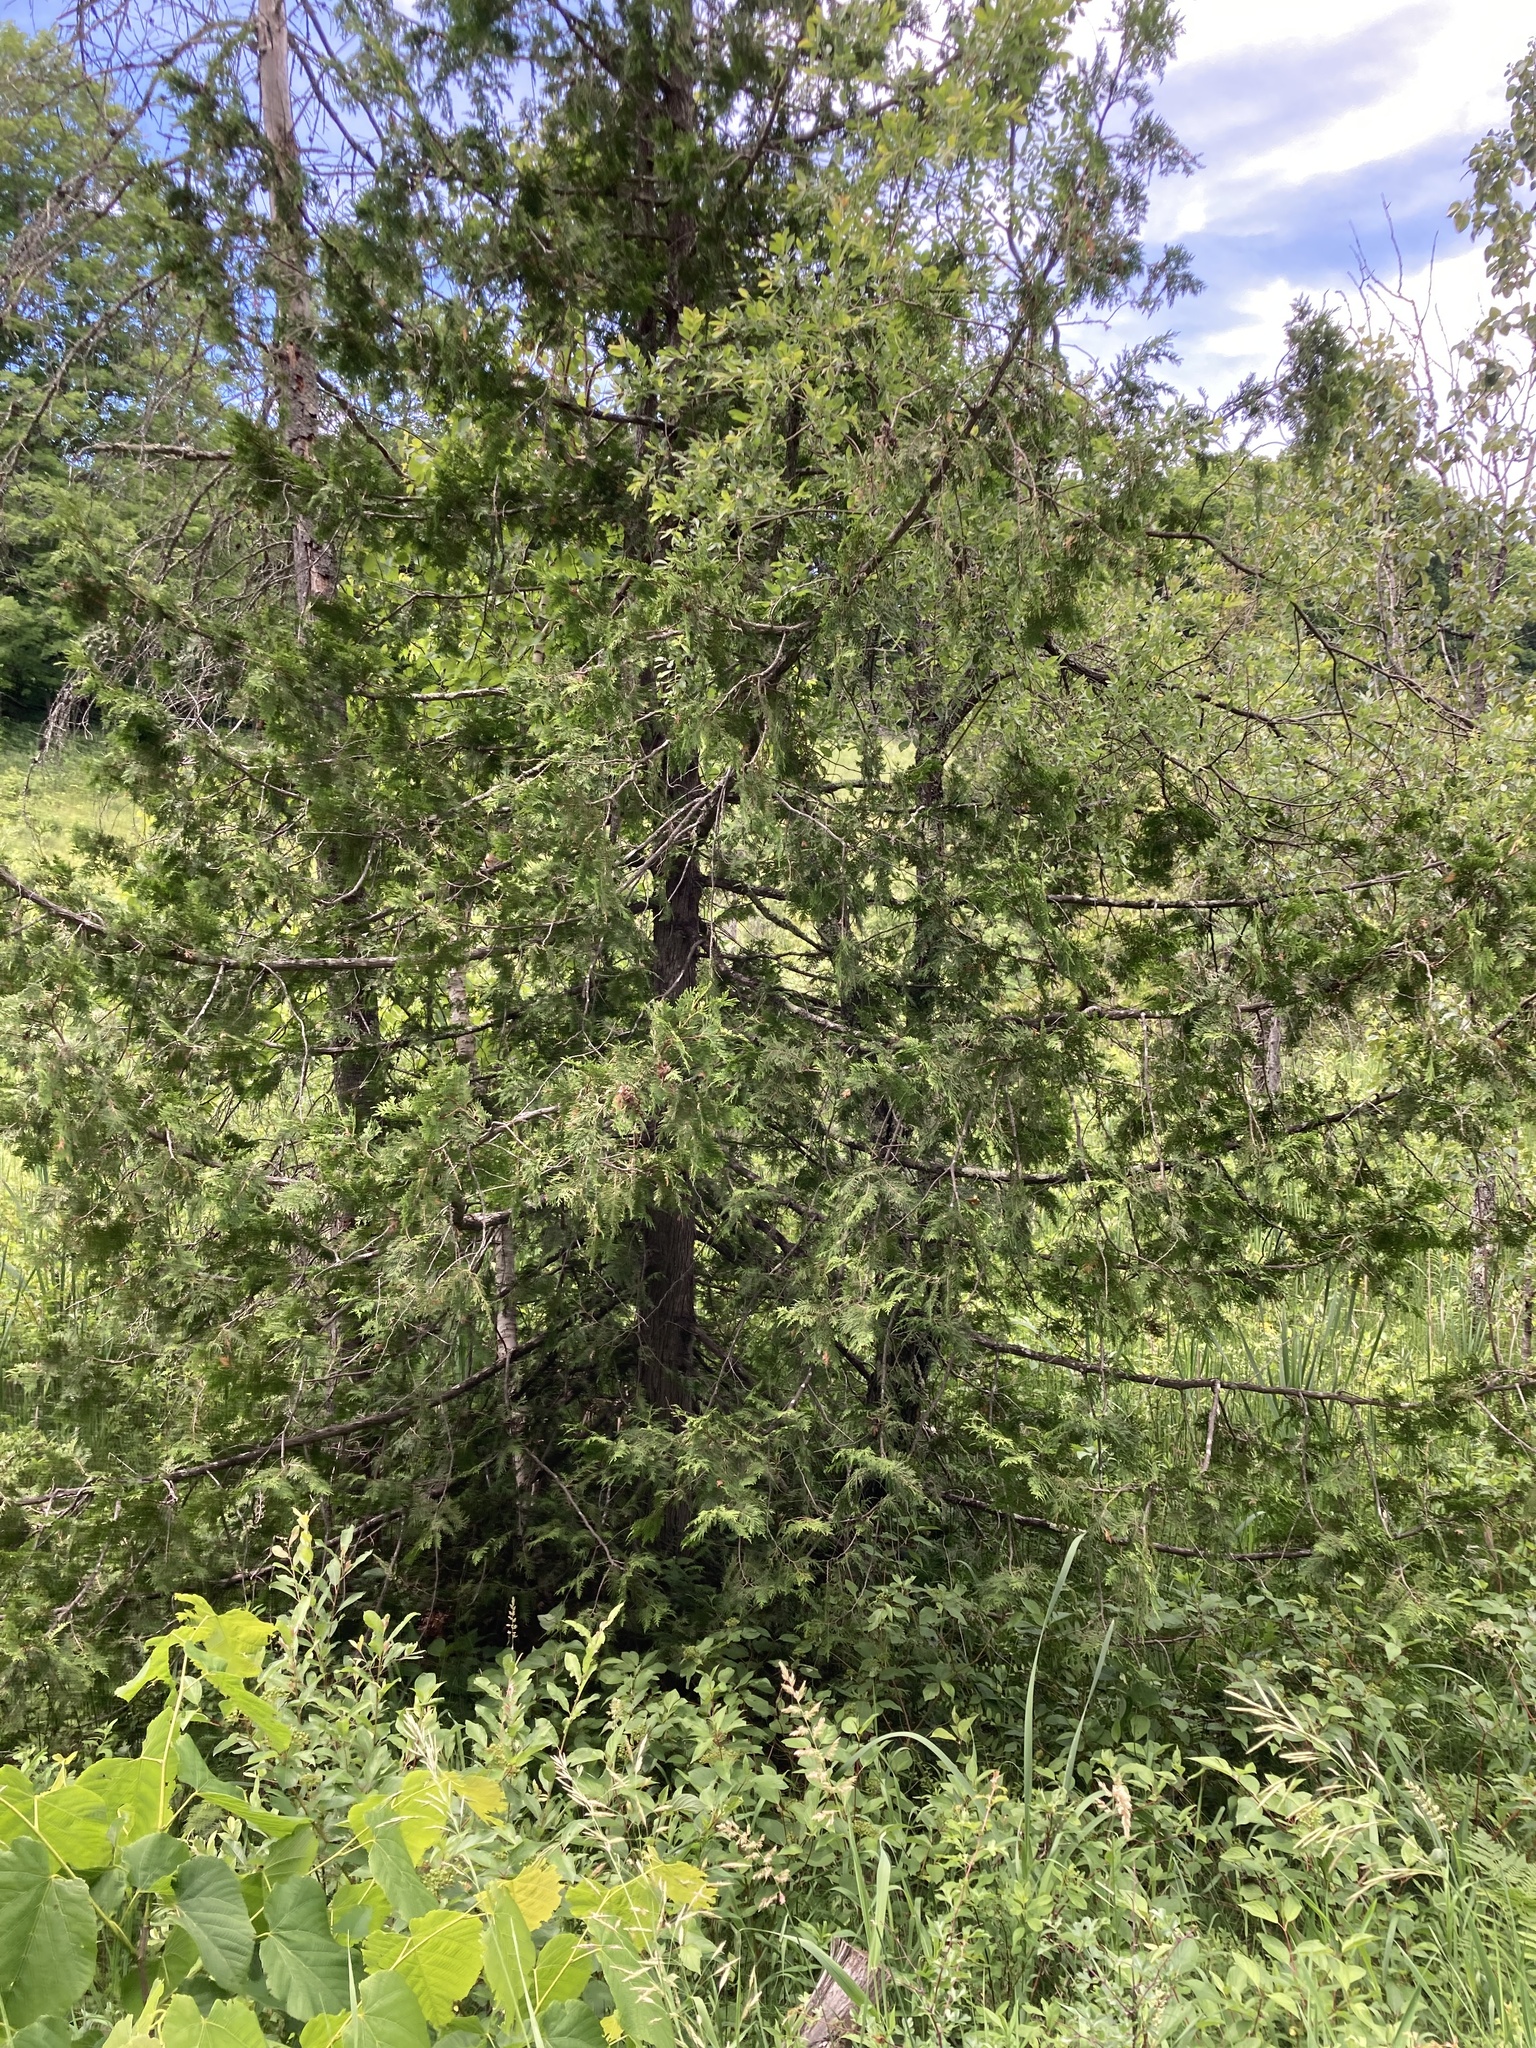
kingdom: Plantae
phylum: Tracheophyta
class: Pinopsida
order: Pinales
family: Cupressaceae
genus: Thuja
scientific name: Thuja occidentalis
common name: Northern white-cedar
